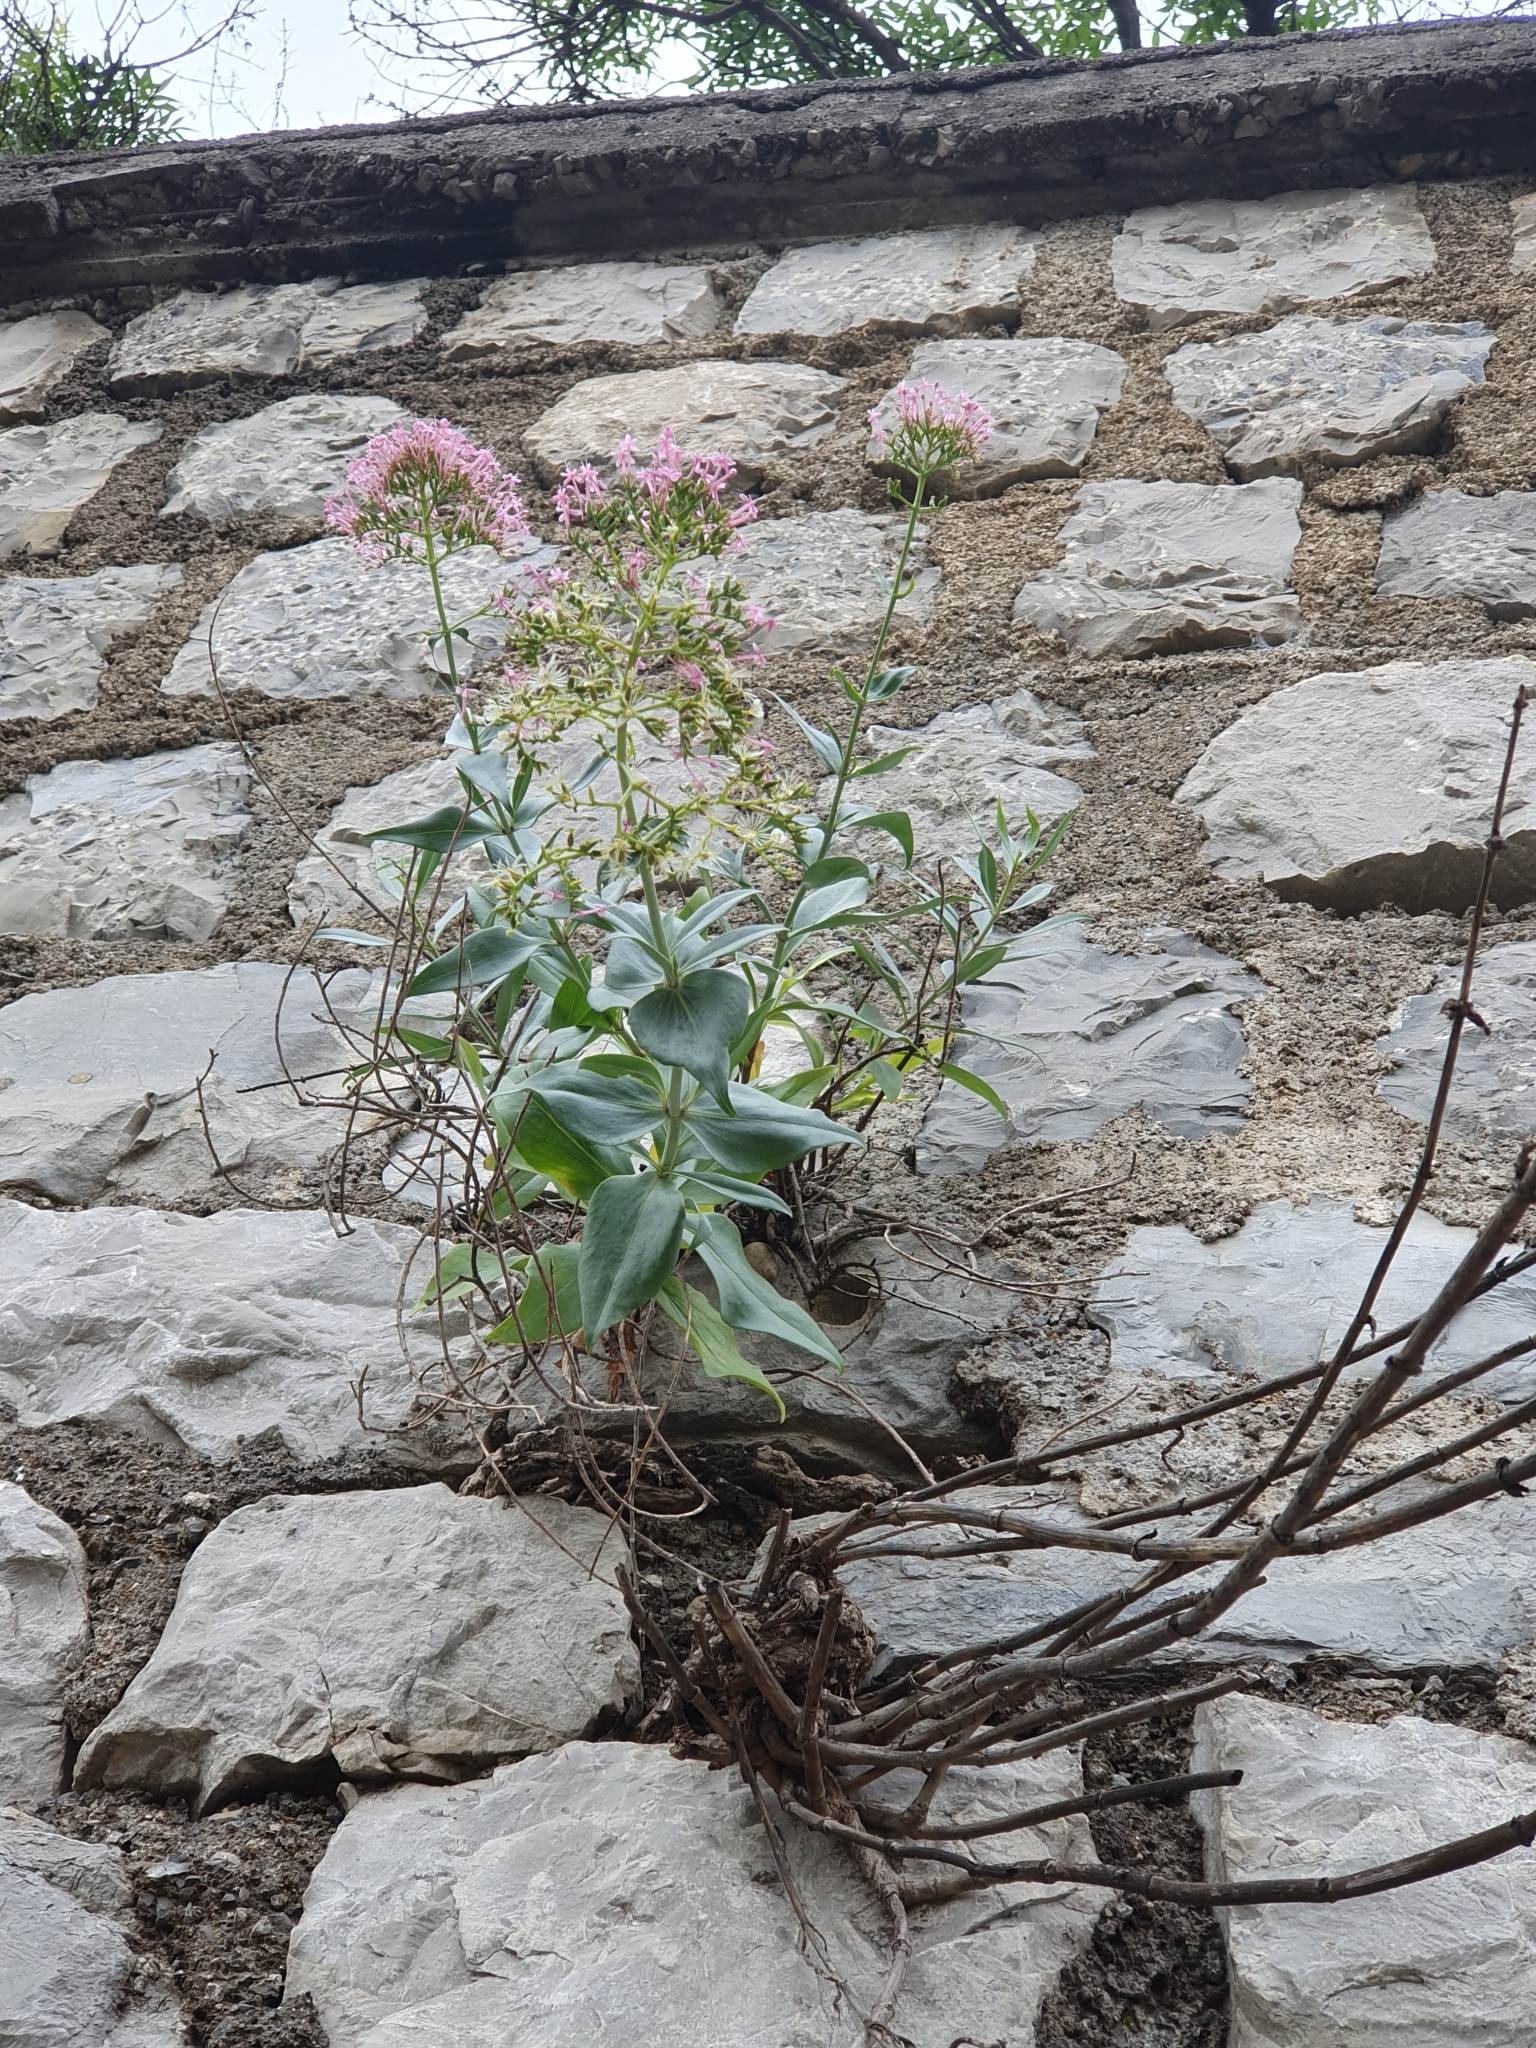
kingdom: Plantae
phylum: Tracheophyta
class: Magnoliopsida
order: Dipsacales
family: Caprifoliaceae
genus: Centranthus
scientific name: Centranthus ruber
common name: Red valerian
